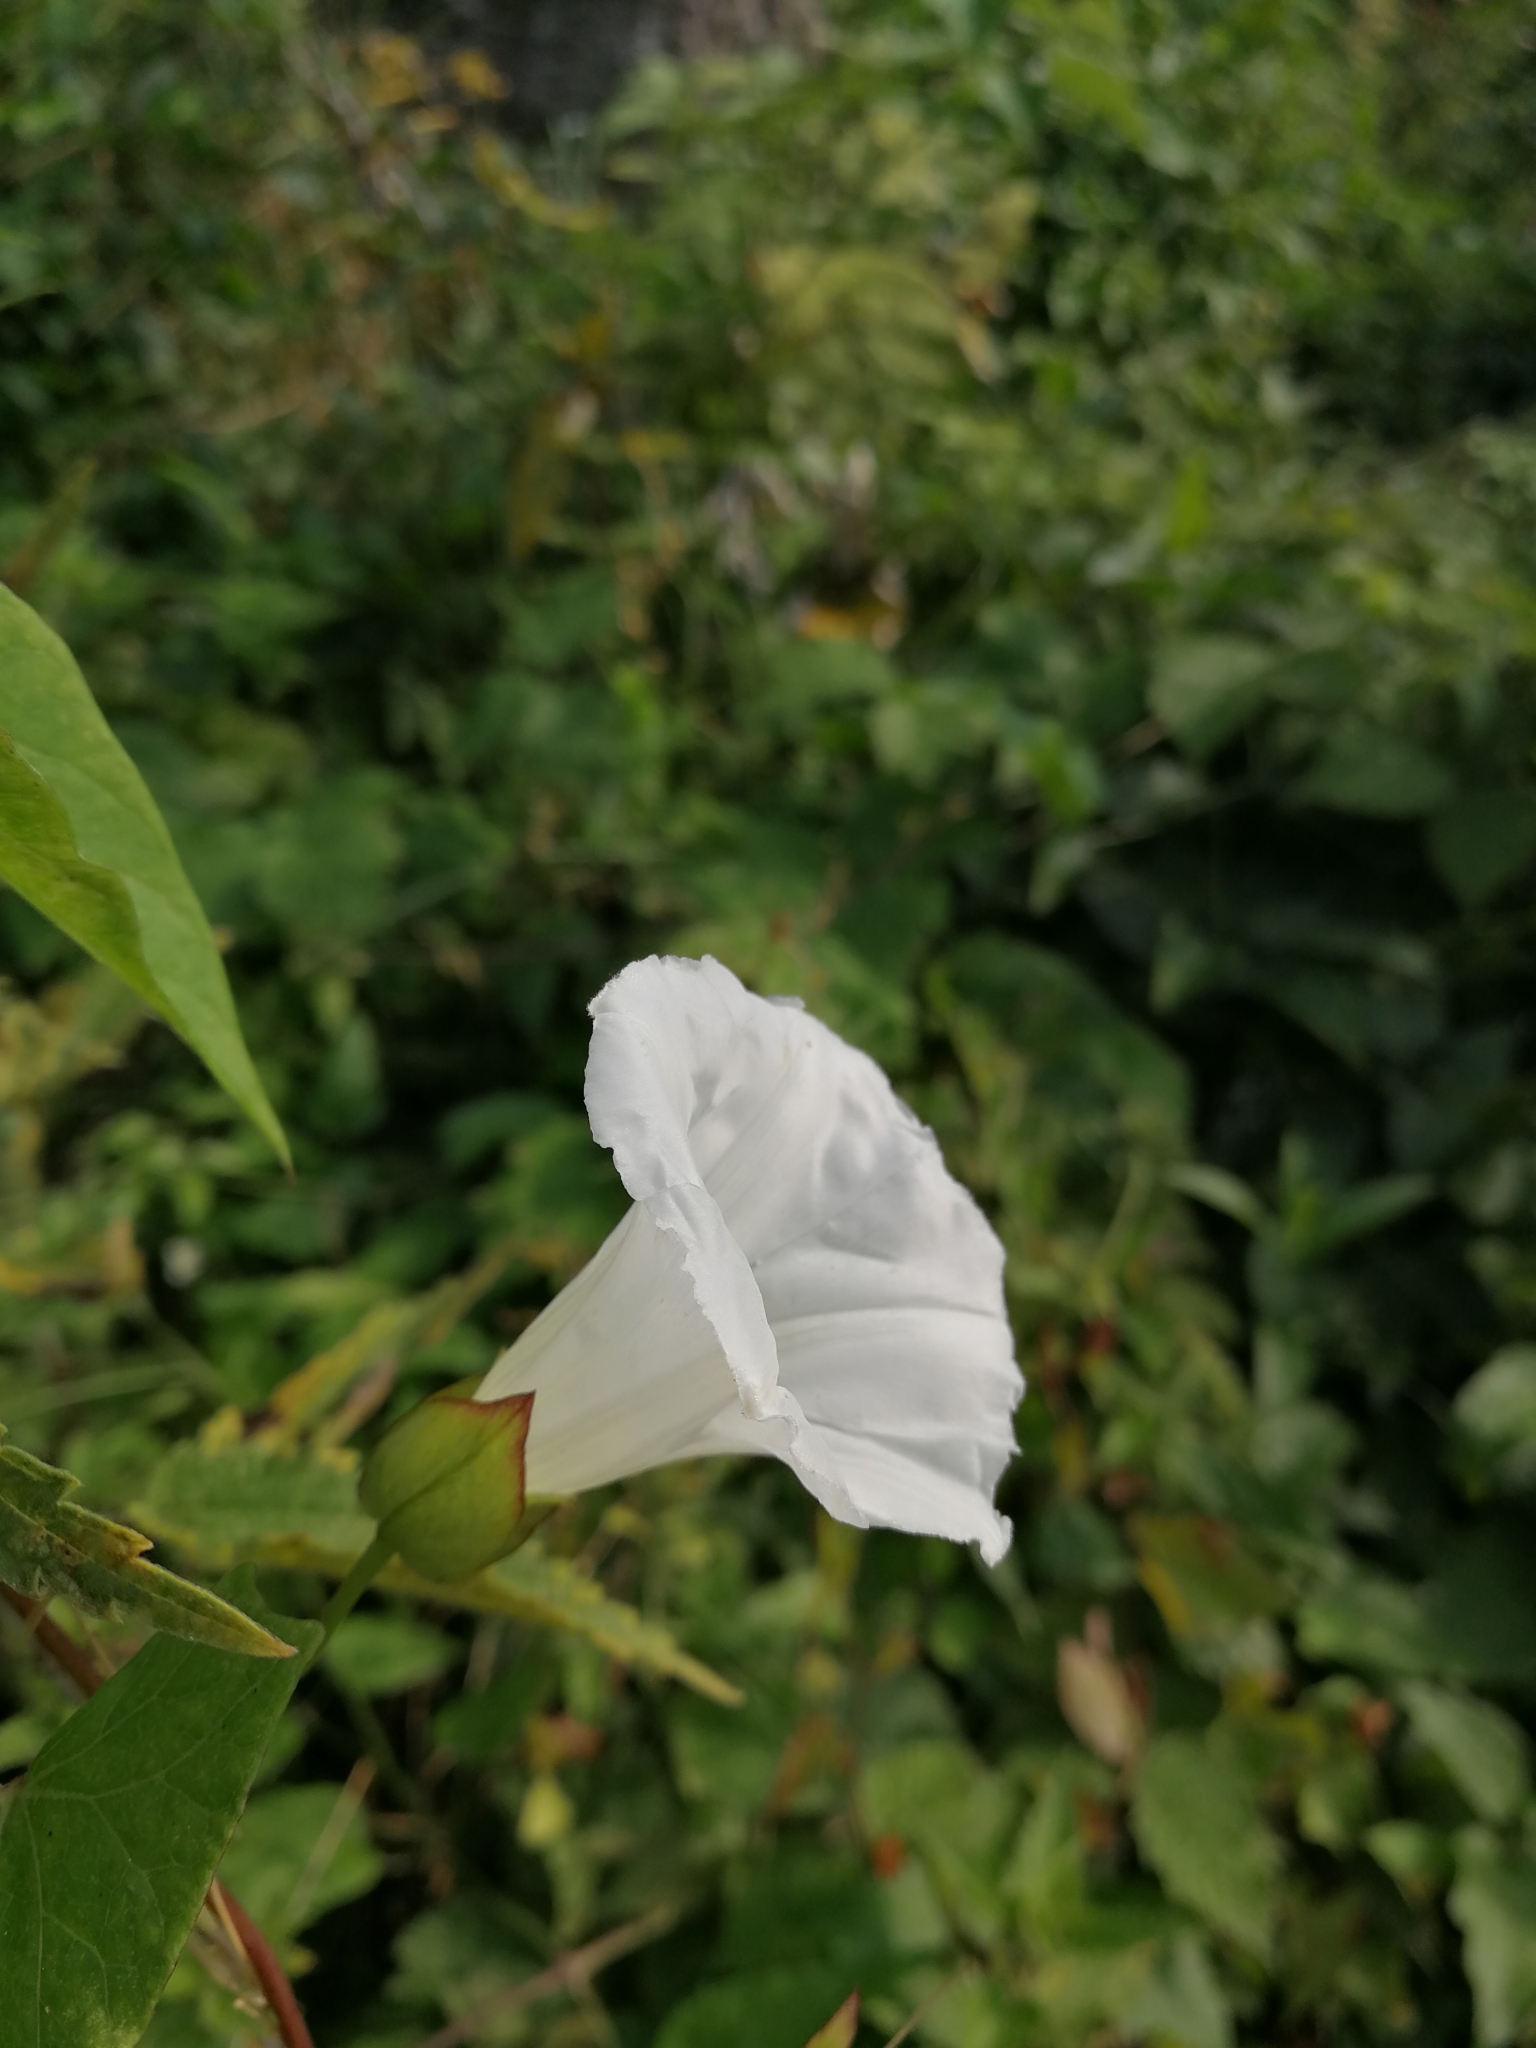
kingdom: Plantae
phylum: Tracheophyta
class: Magnoliopsida
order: Solanales
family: Convolvulaceae
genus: Calystegia
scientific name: Calystegia sepium
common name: Hedge bindweed
